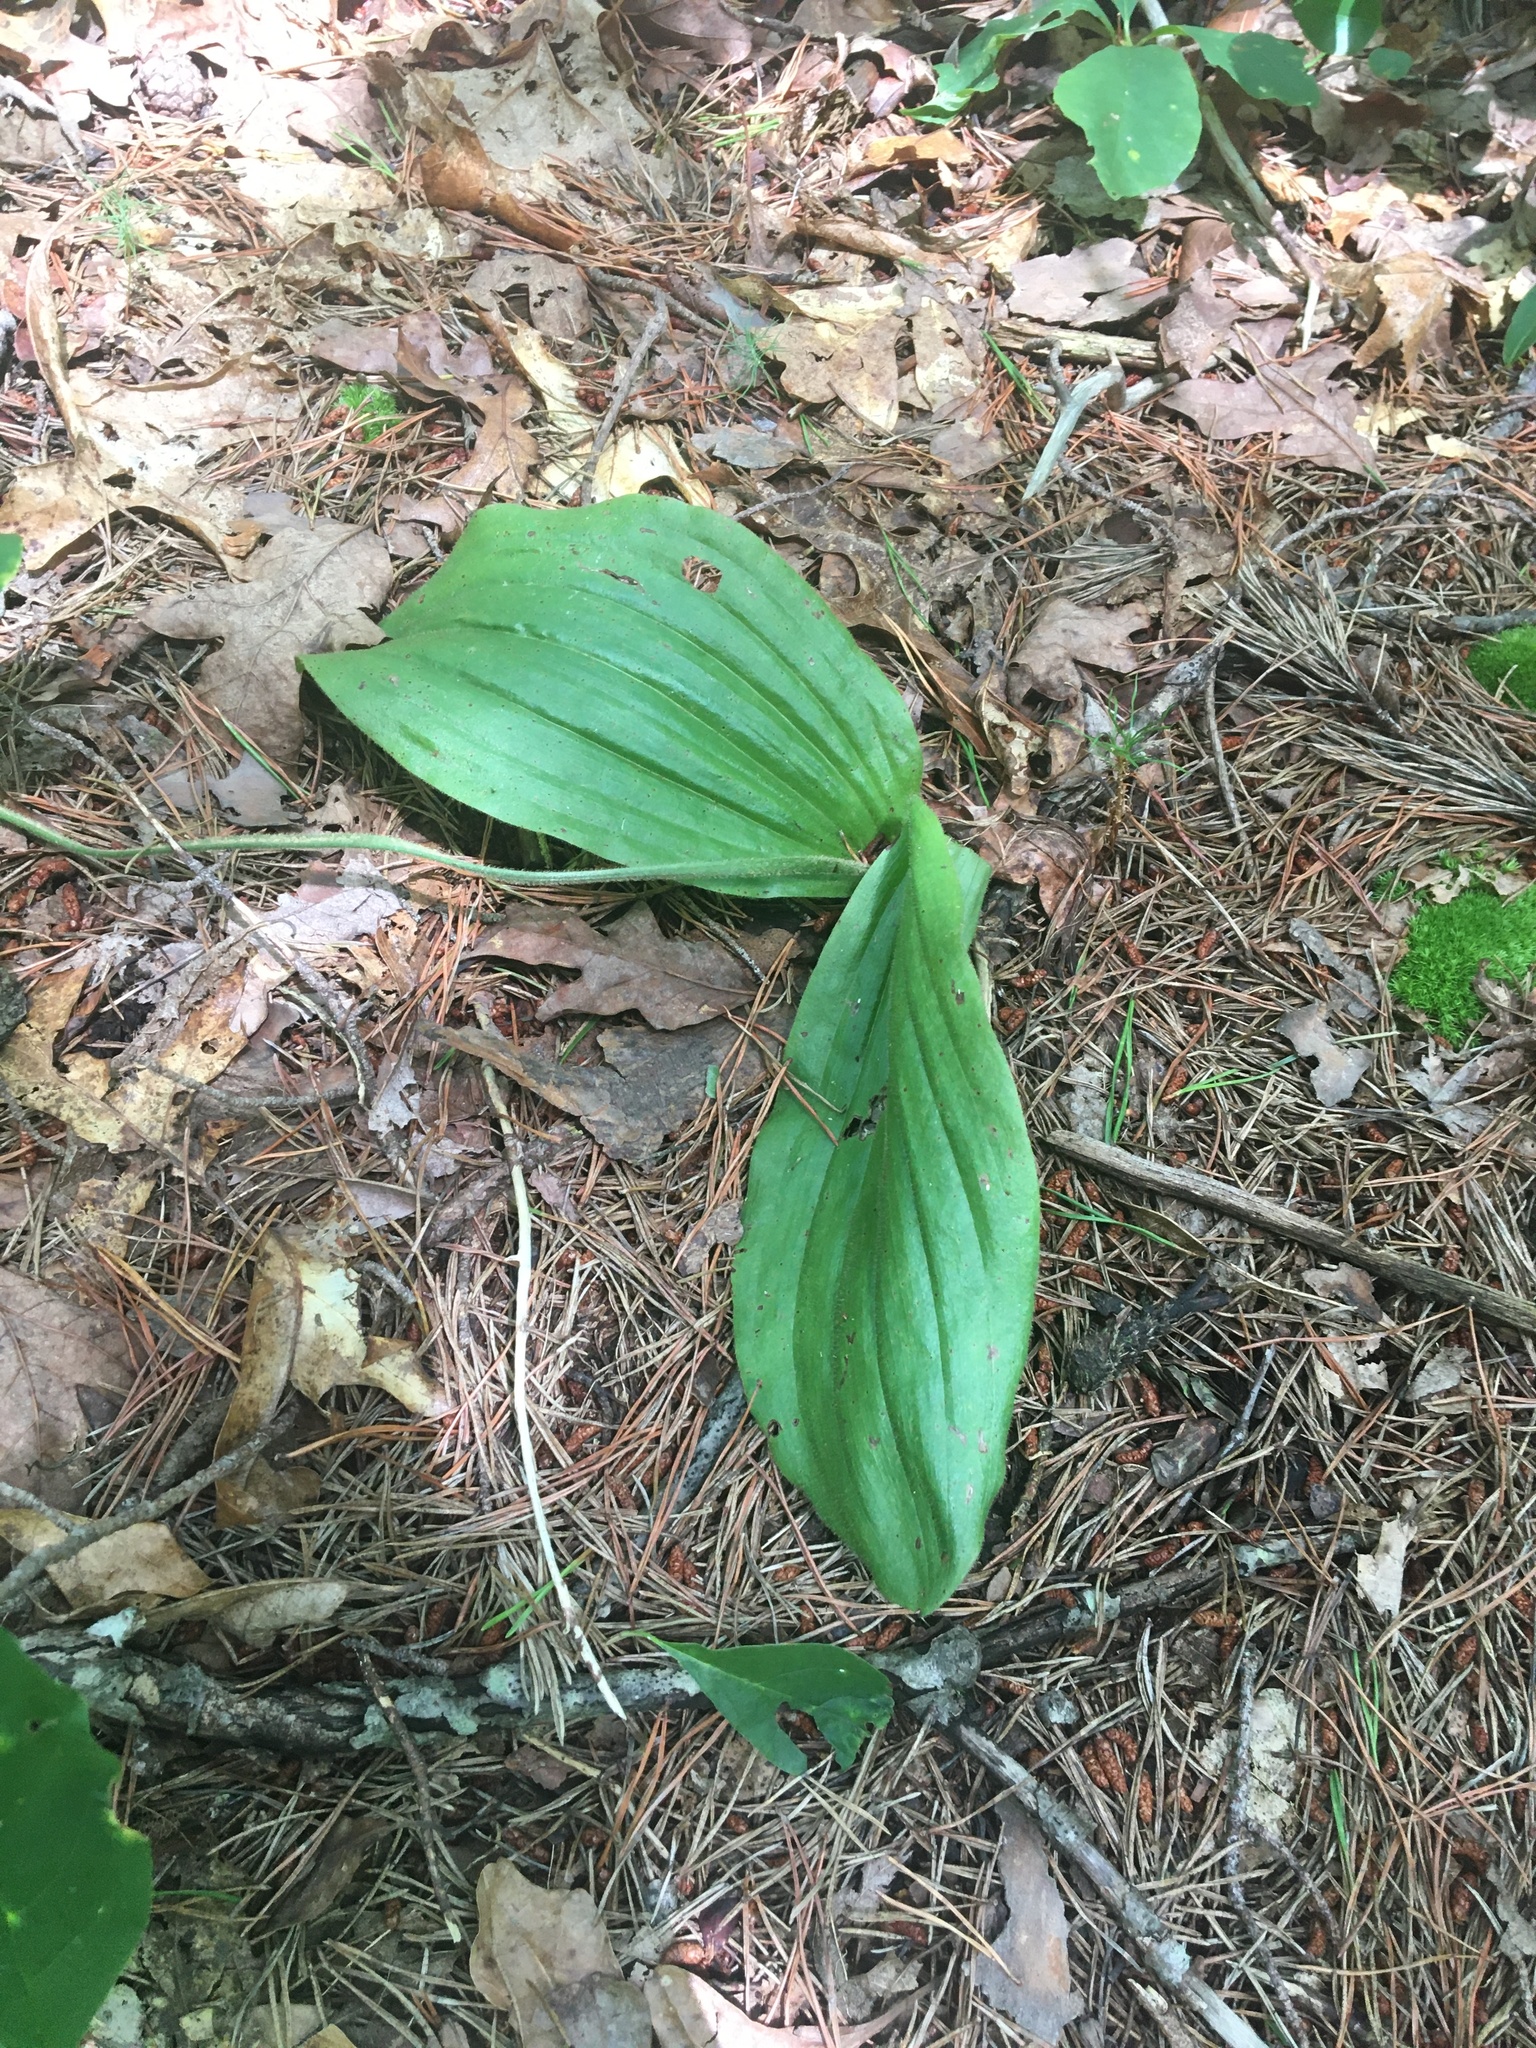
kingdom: Plantae
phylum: Tracheophyta
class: Liliopsida
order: Asparagales
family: Orchidaceae
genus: Cypripedium
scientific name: Cypripedium acaule
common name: Pink lady's-slipper
